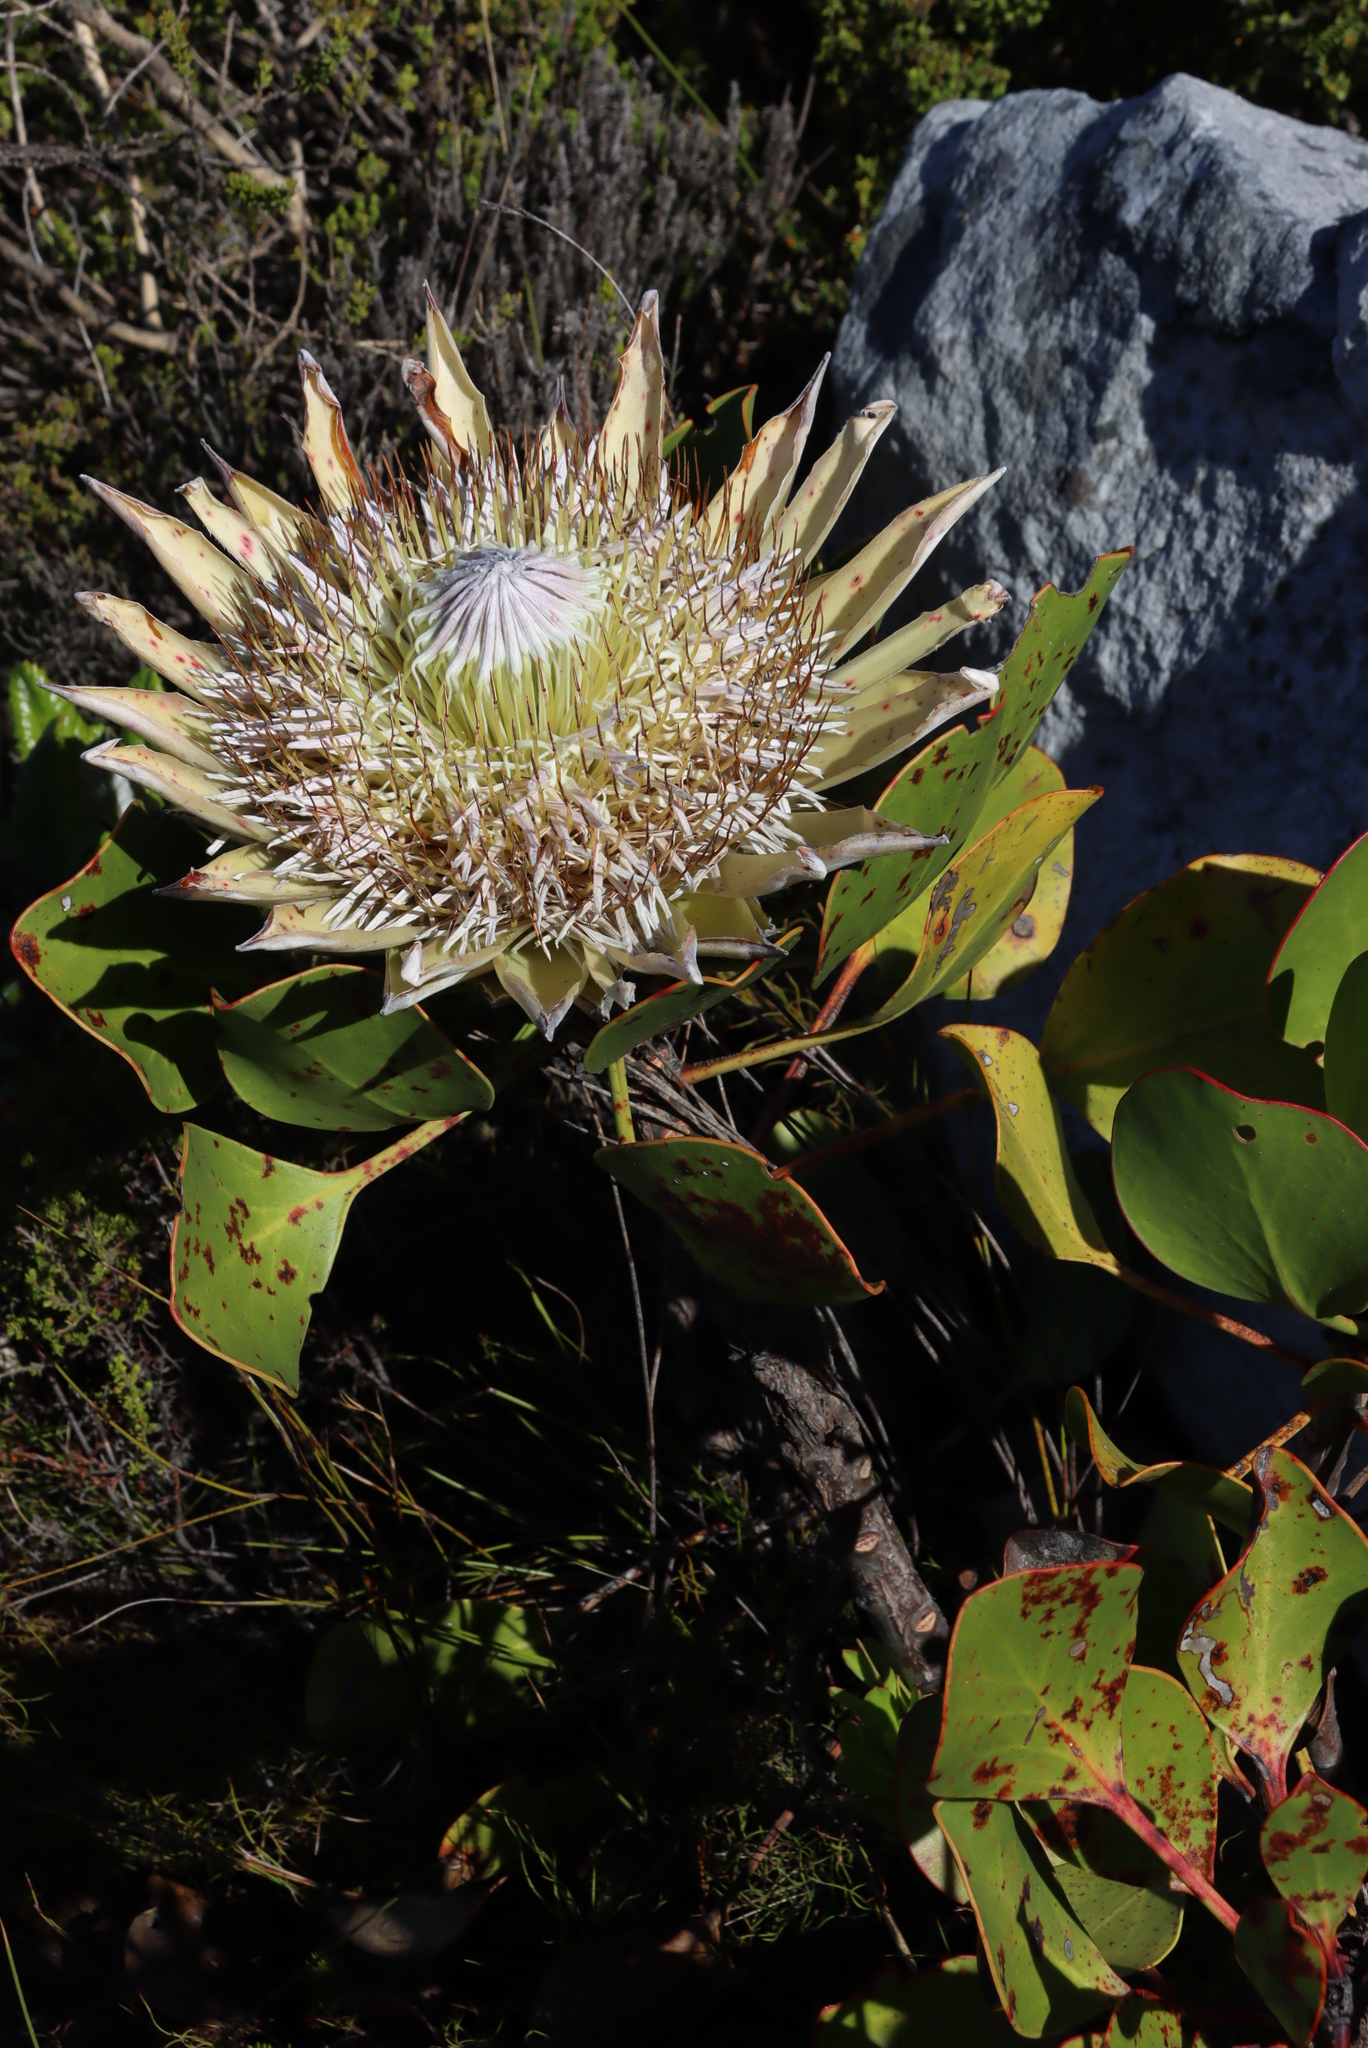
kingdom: Plantae
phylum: Tracheophyta
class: Magnoliopsida
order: Proteales
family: Proteaceae
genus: Protea
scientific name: Protea cynaroides
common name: King protea
